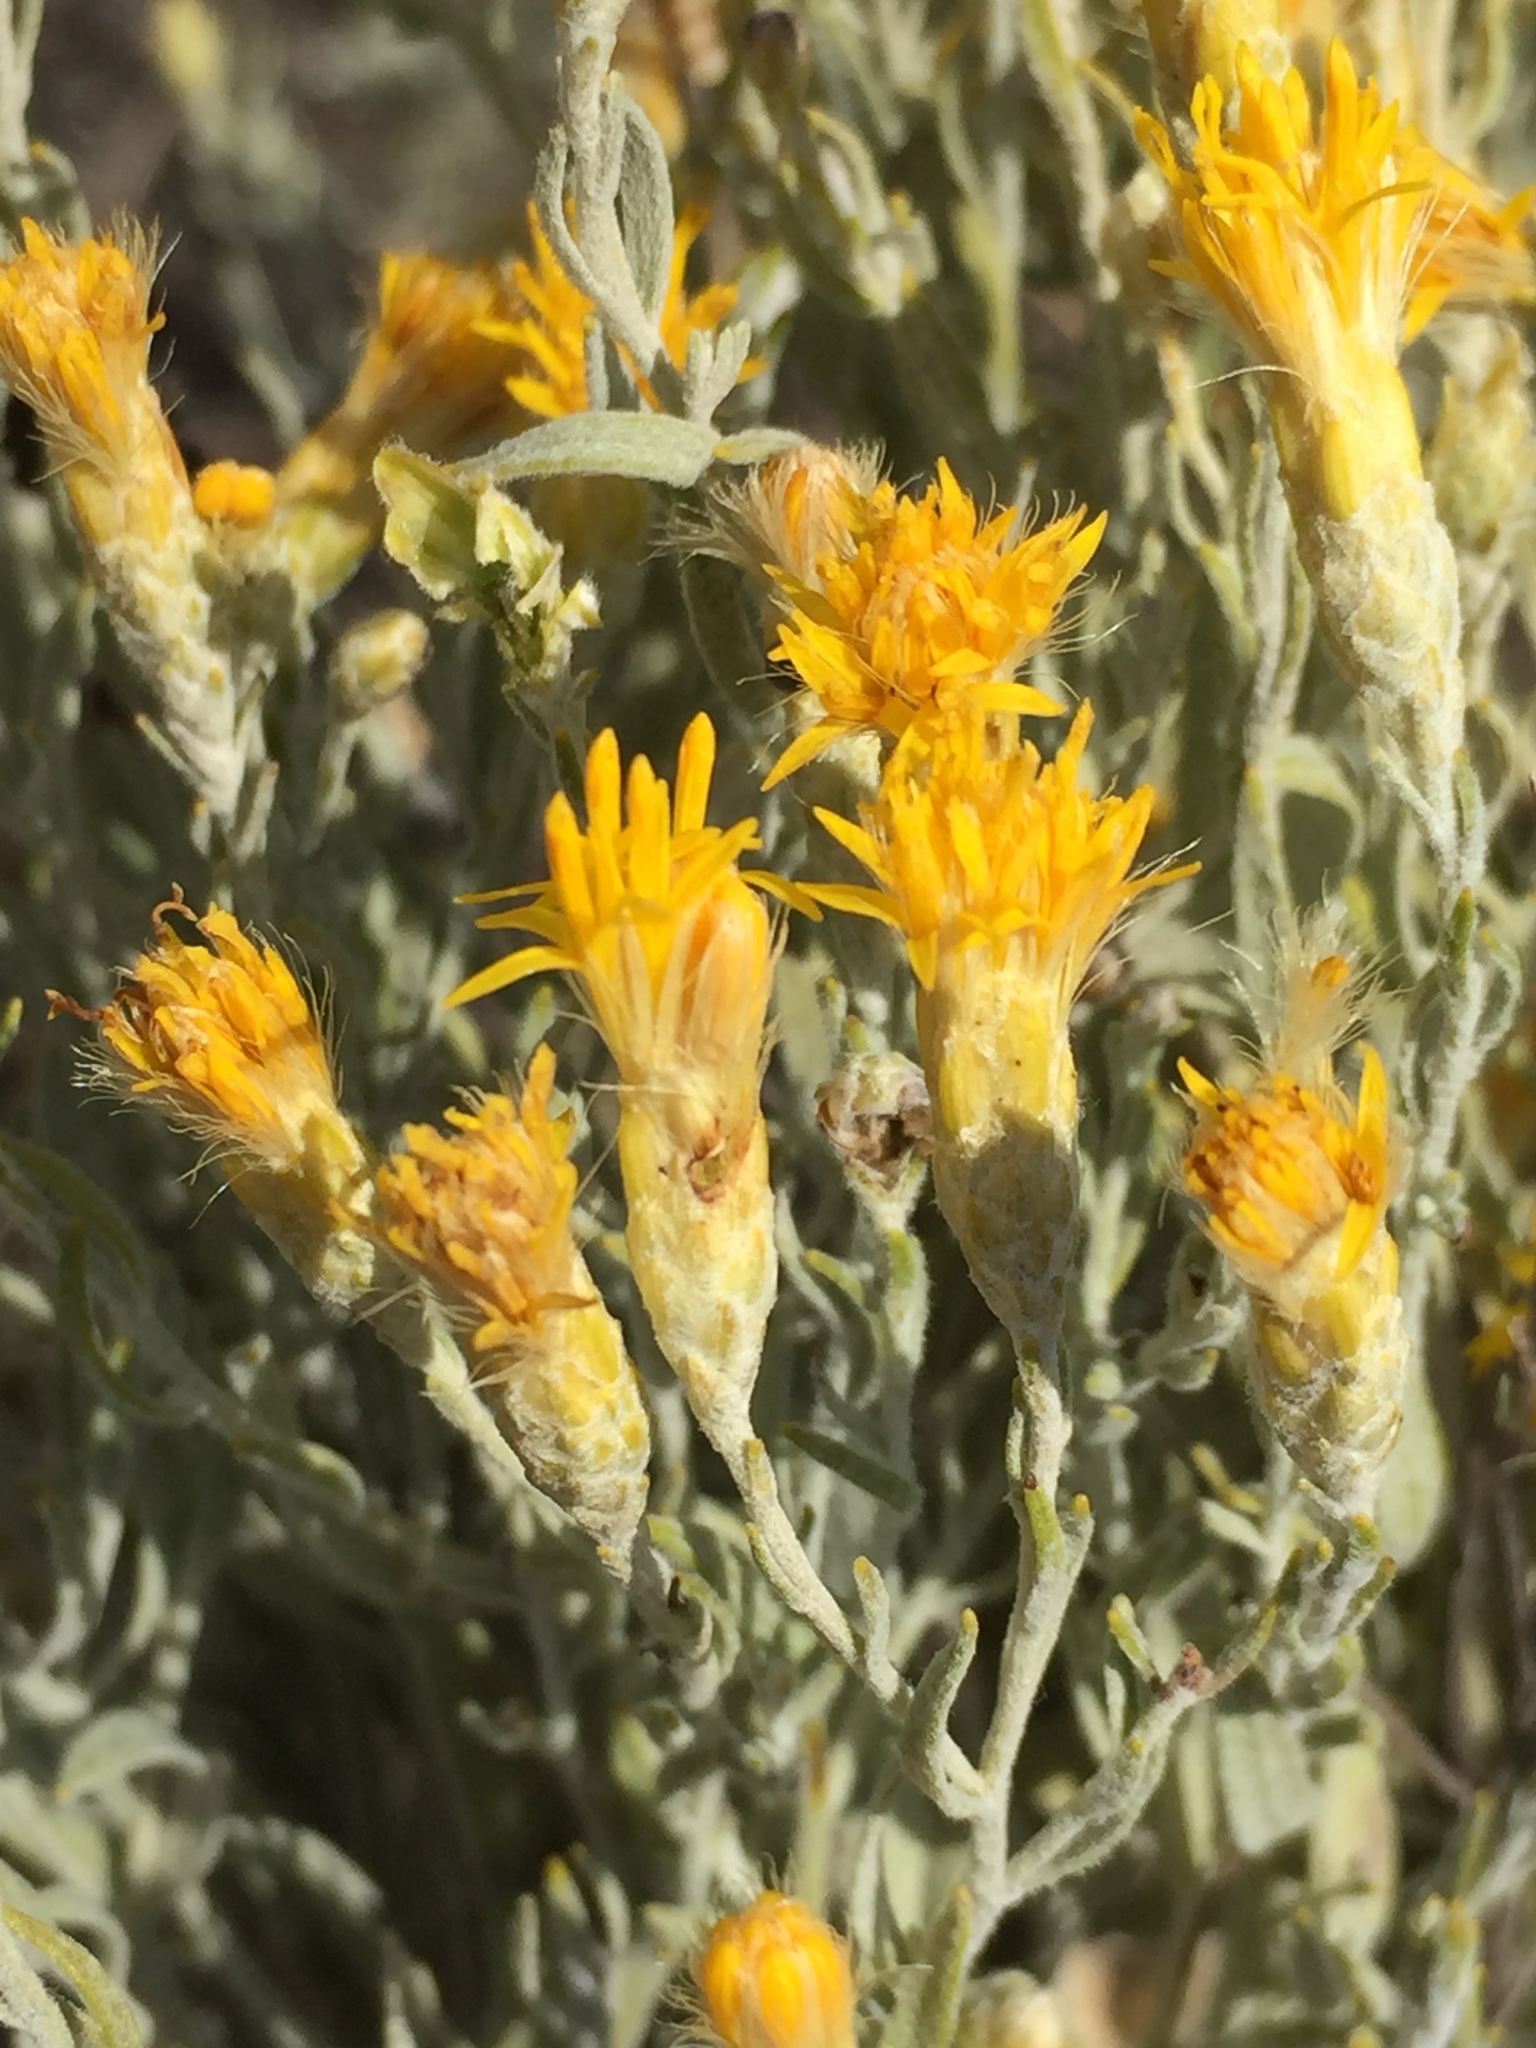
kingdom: Plantae
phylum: Tracheophyta
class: Magnoliopsida
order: Asterales
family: Asteraceae
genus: Galatella
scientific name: Galatella villosa
